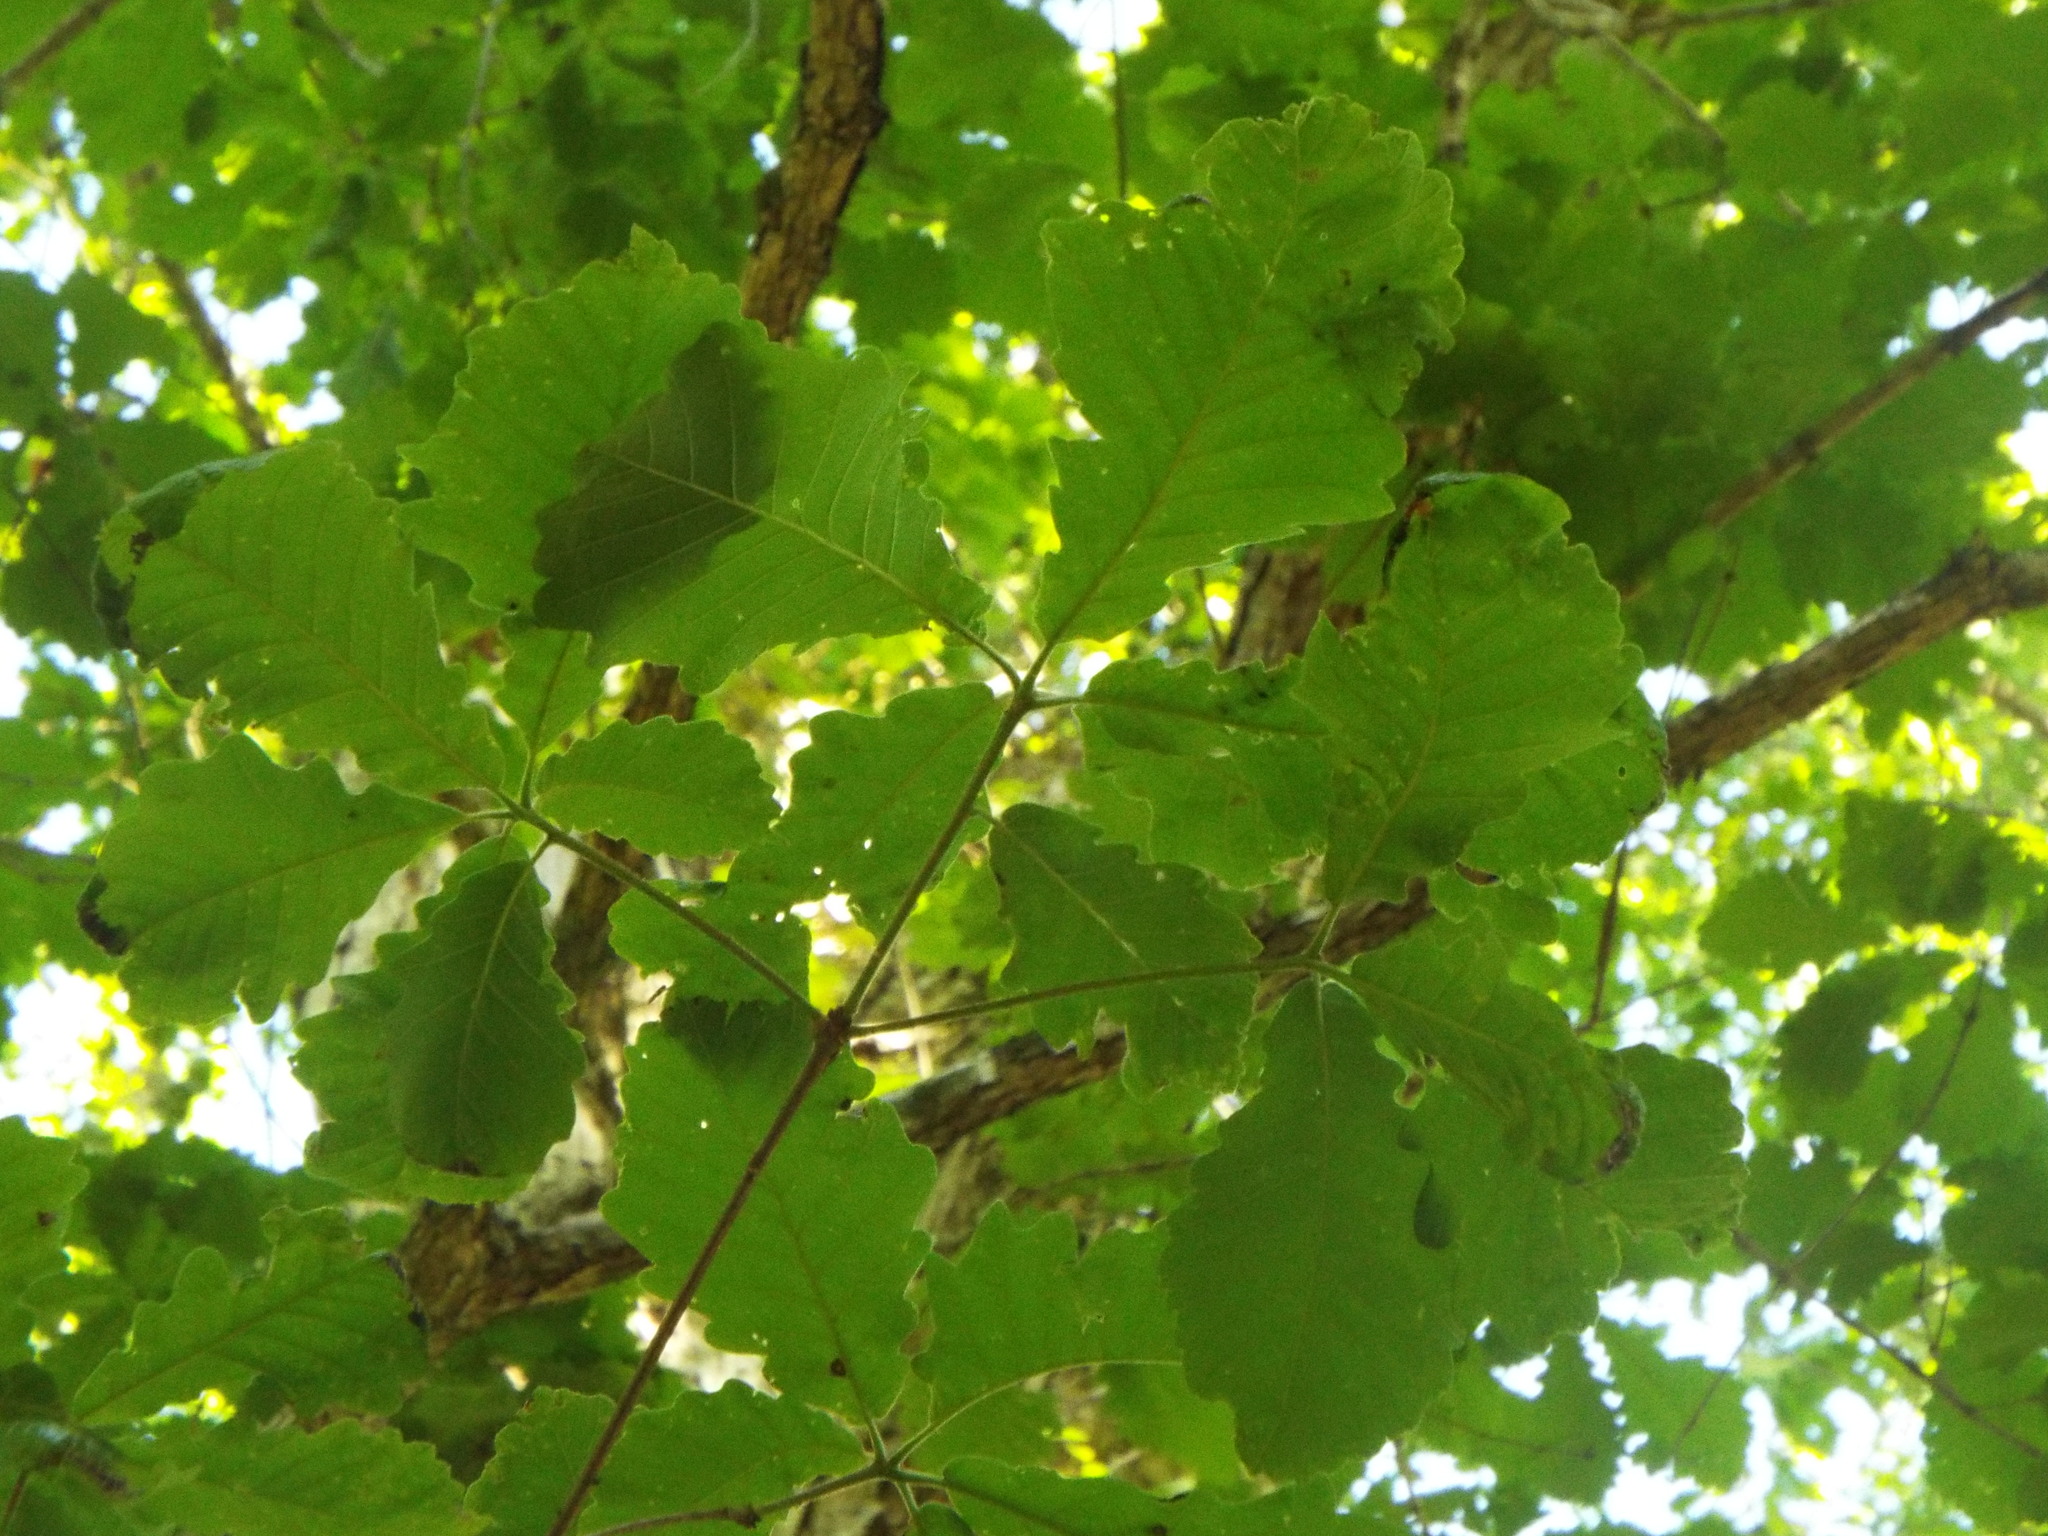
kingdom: Plantae
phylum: Tracheophyta
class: Magnoliopsida
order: Fagales
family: Fagaceae
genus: Quercus
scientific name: Quercus michauxii
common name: Swamp chestnut oak
